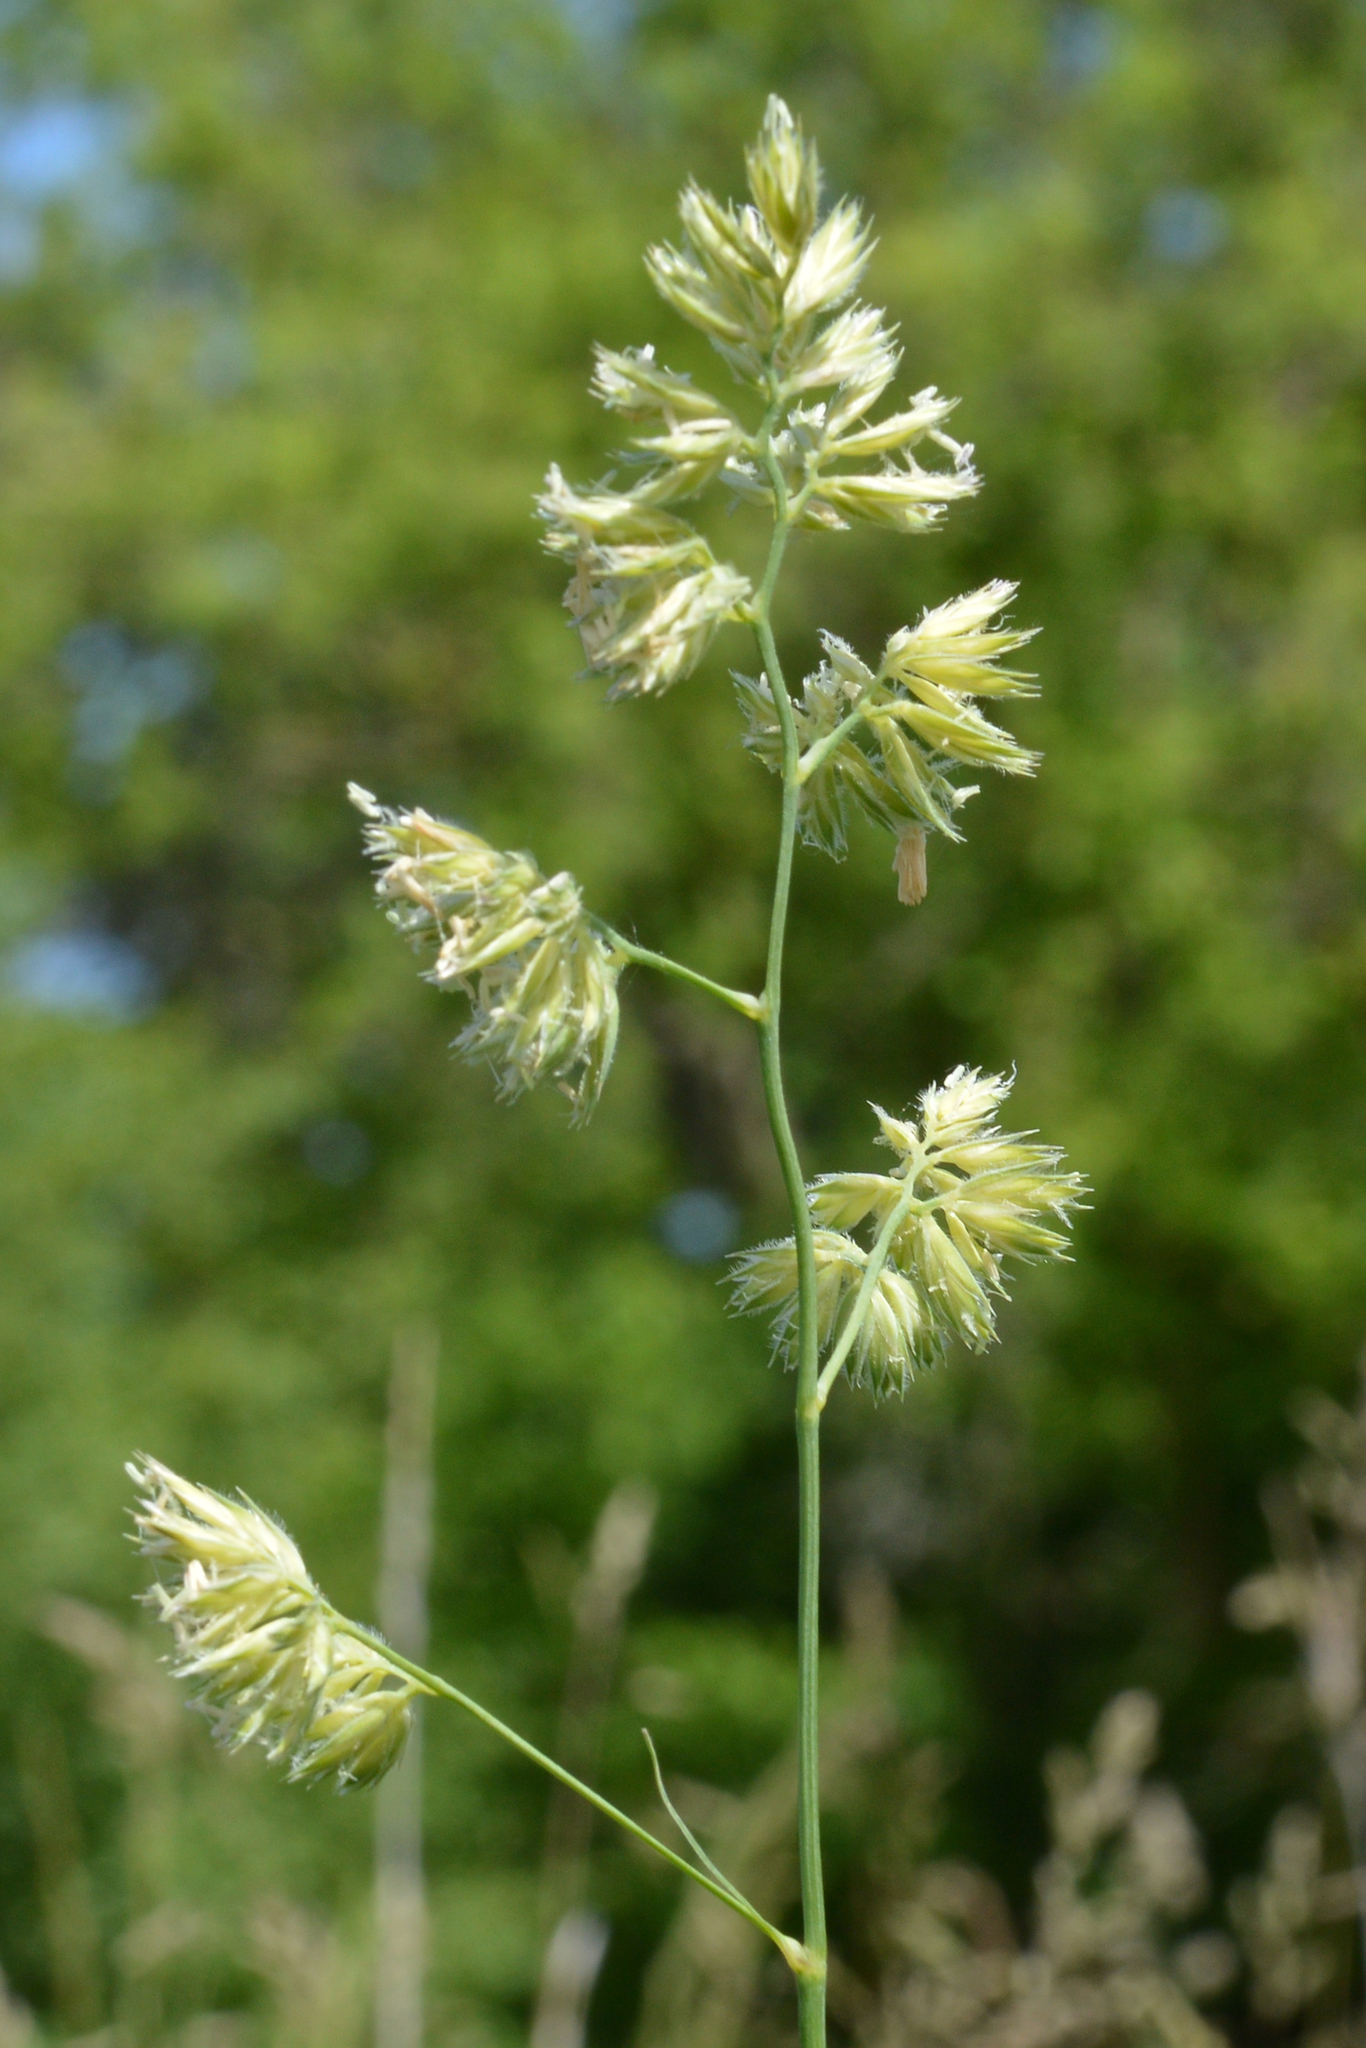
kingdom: Plantae
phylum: Tracheophyta
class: Liliopsida
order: Poales
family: Poaceae
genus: Dactylis
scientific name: Dactylis glomerata
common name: Orchardgrass
